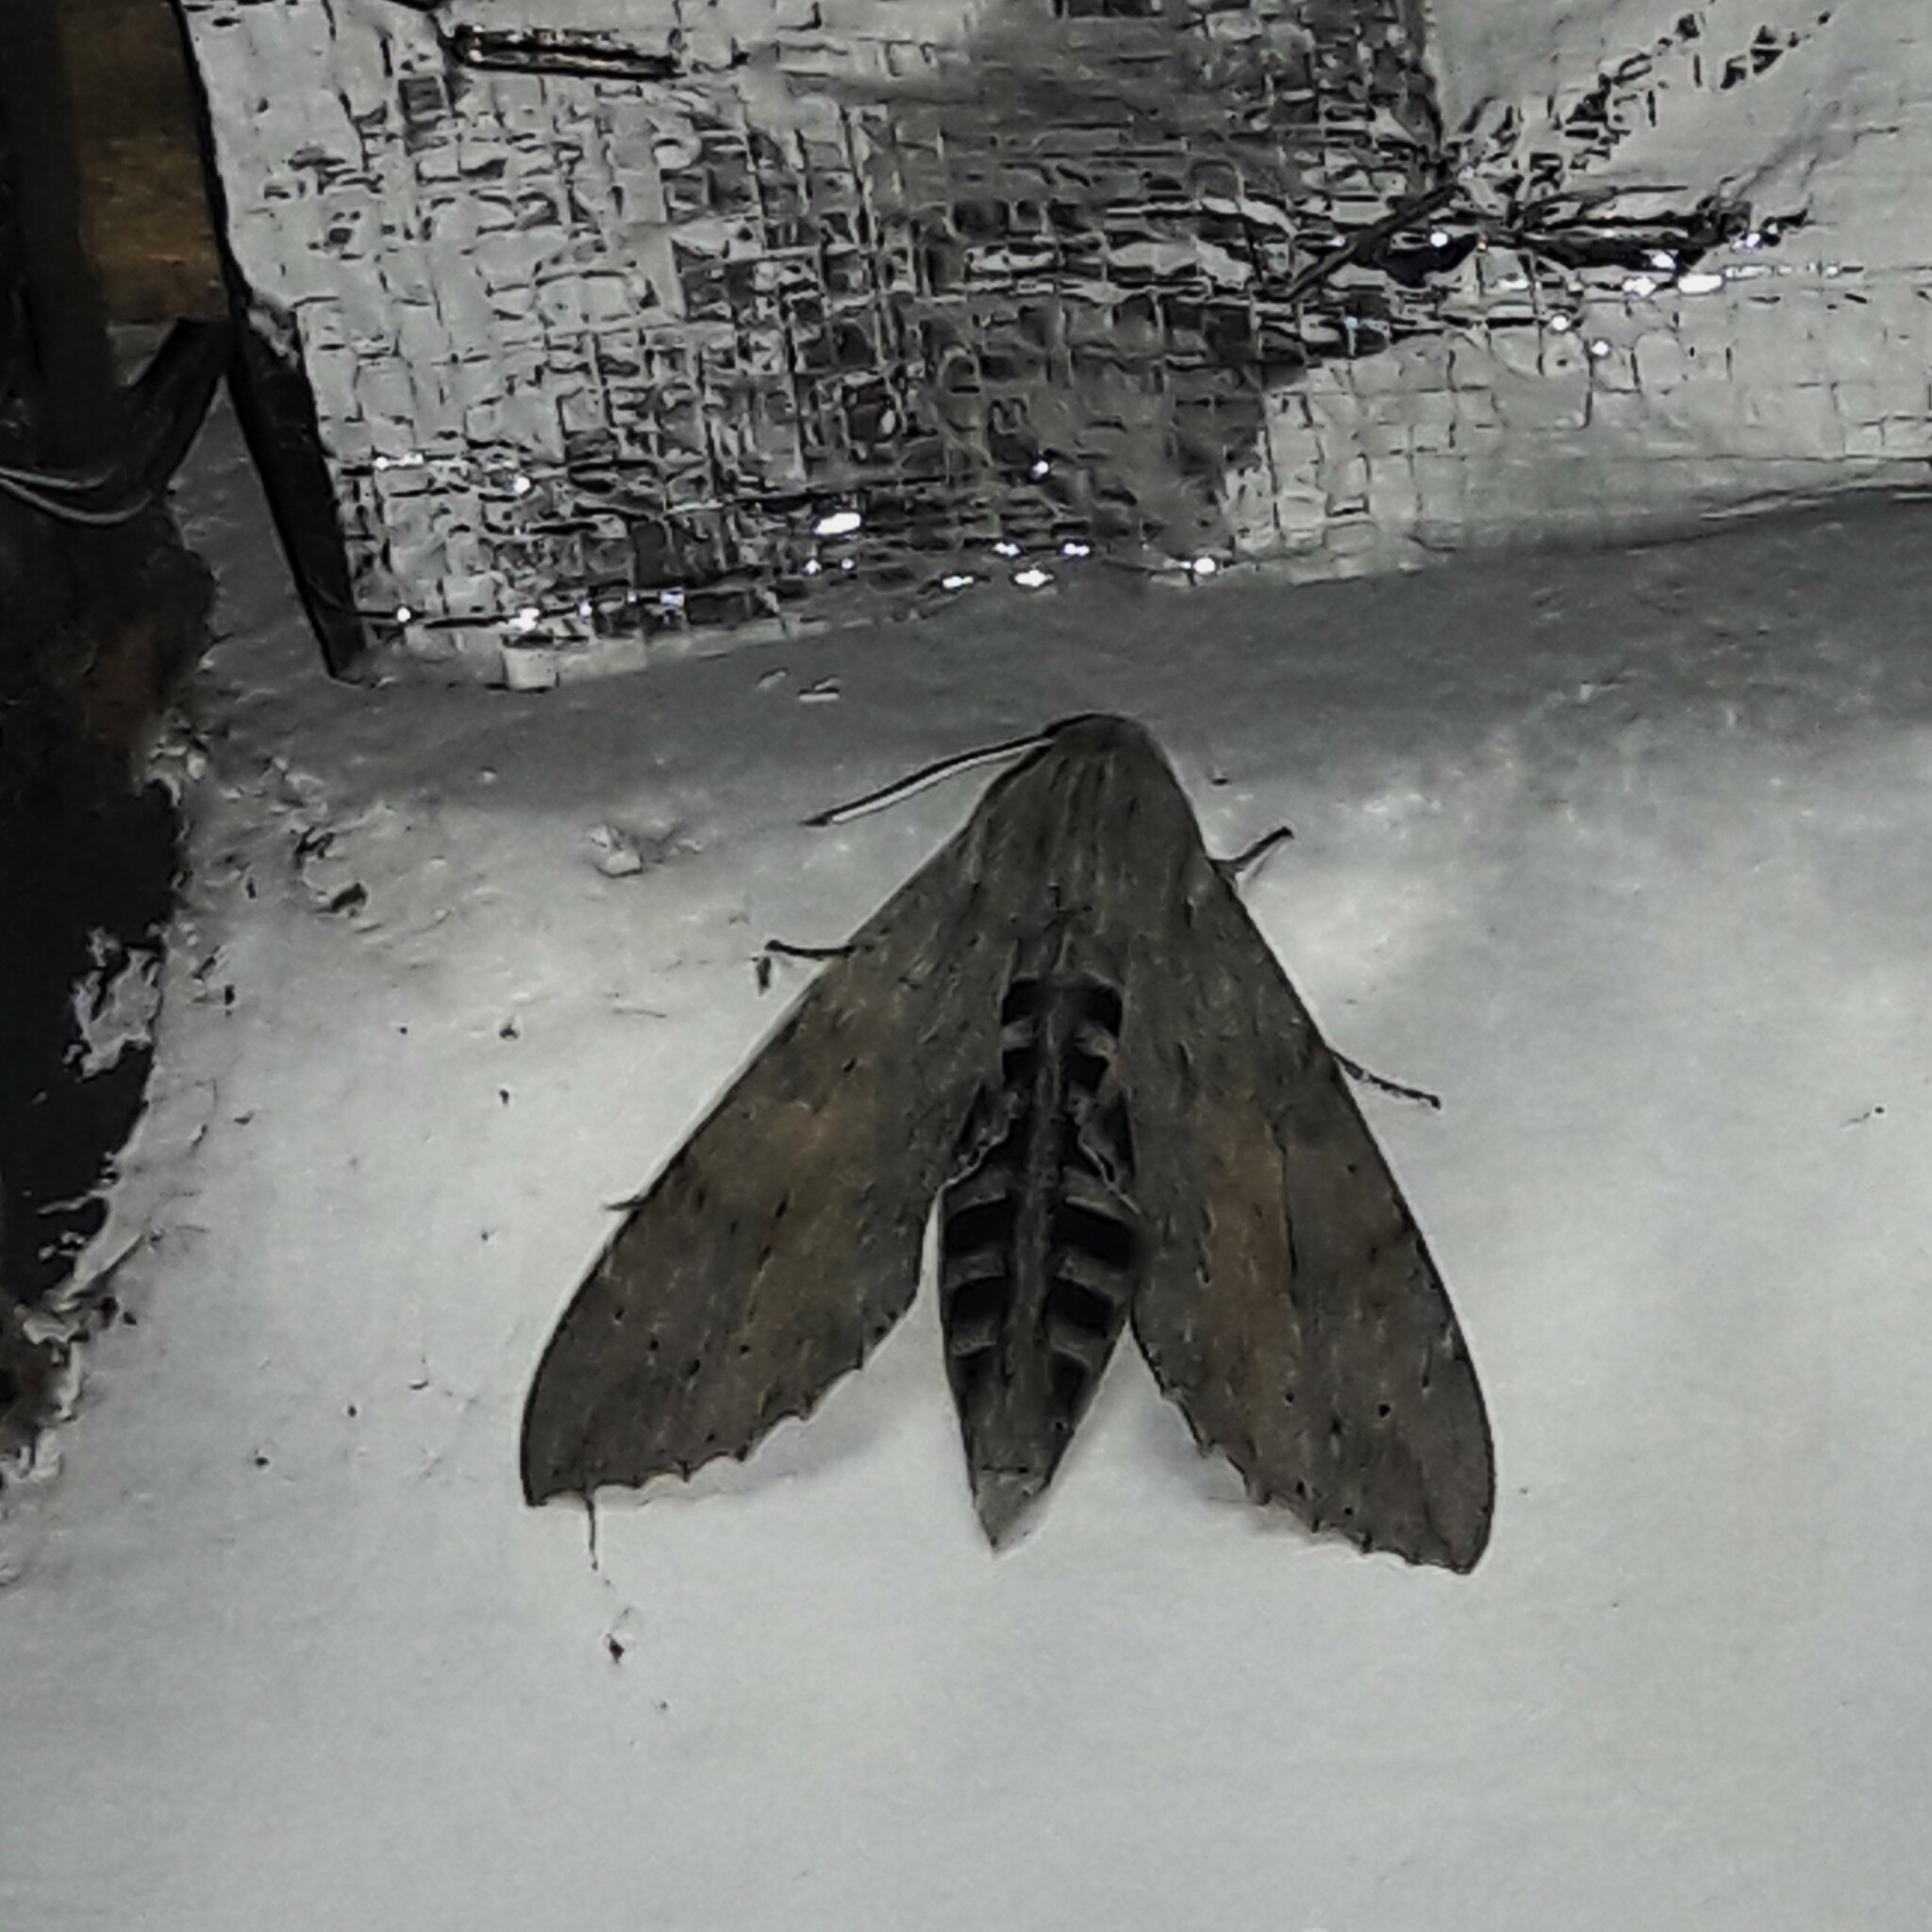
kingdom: Animalia
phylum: Arthropoda
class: Insecta
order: Lepidoptera
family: Sphingidae
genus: Erinnyis
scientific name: Erinnyis ello
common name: Ello sphinx
